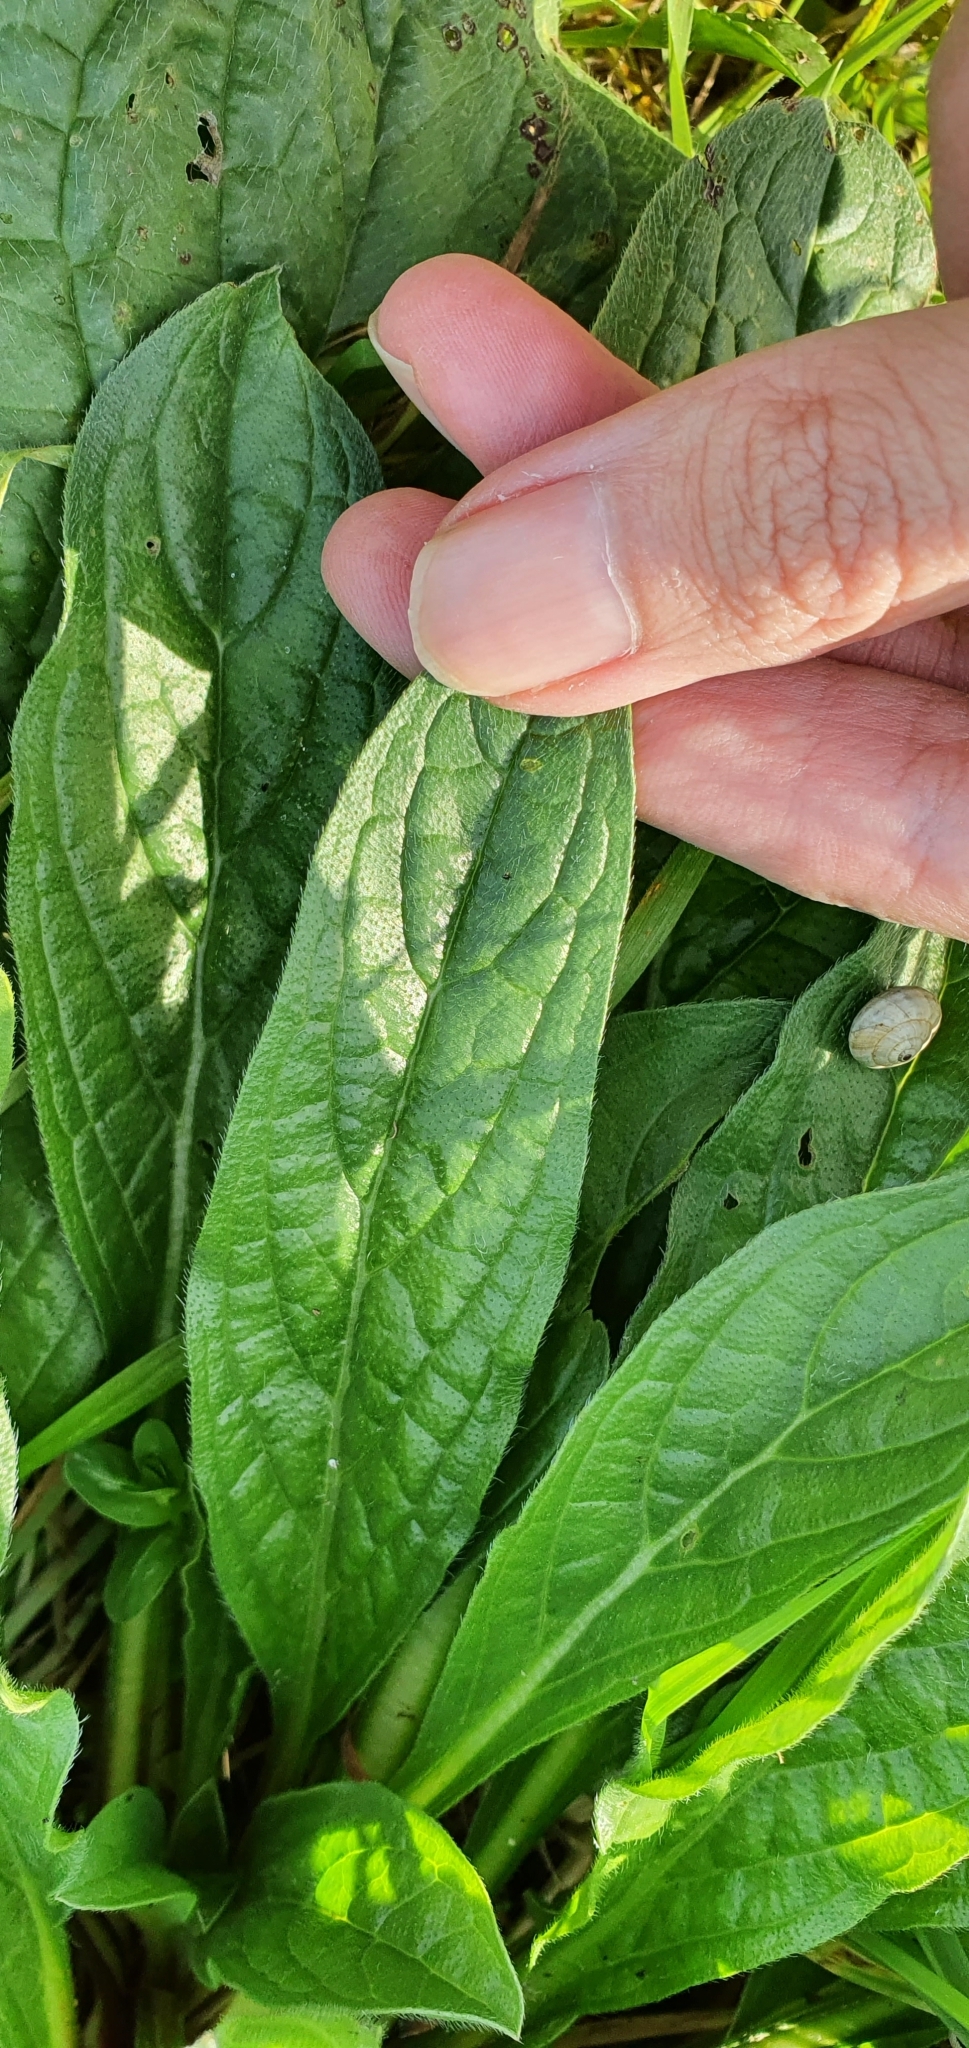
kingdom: Plantae
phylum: Tracheophyta
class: Magnoliopsida
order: Boraginales
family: Boraginaceae
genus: Echium
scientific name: Echium plantagineum
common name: Purple viper's-bugloss
